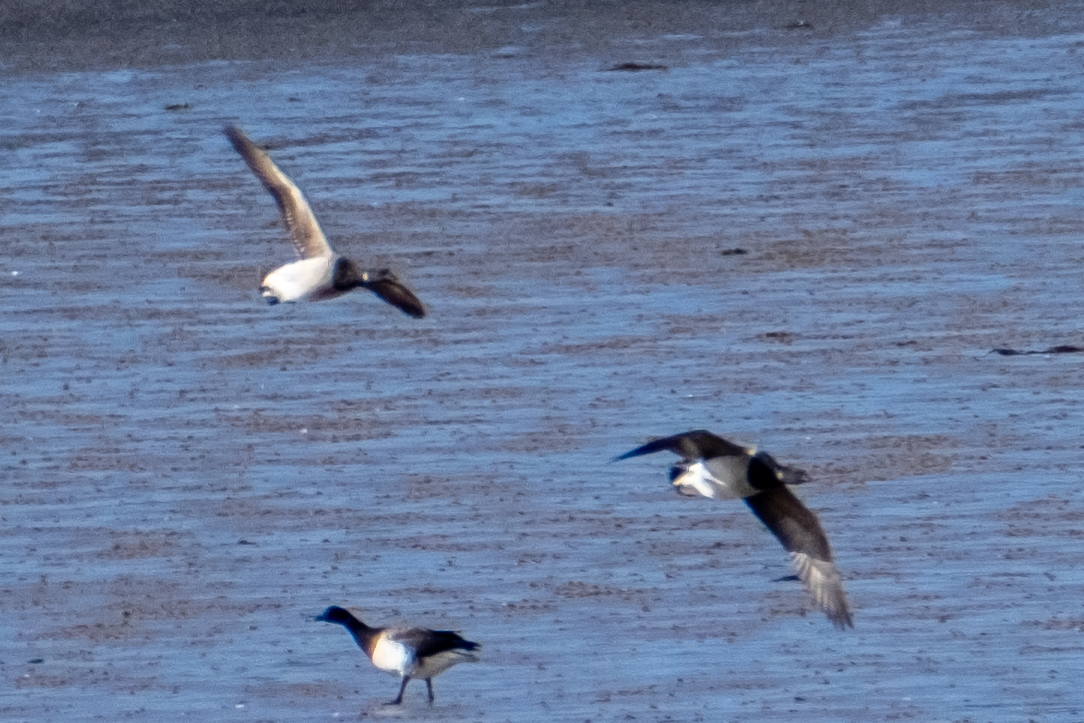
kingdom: Animalia
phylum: Chordata
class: Aves
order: Anseriformes
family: Anatidae
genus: Branta
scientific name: Branta bernicla
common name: Brant goose
